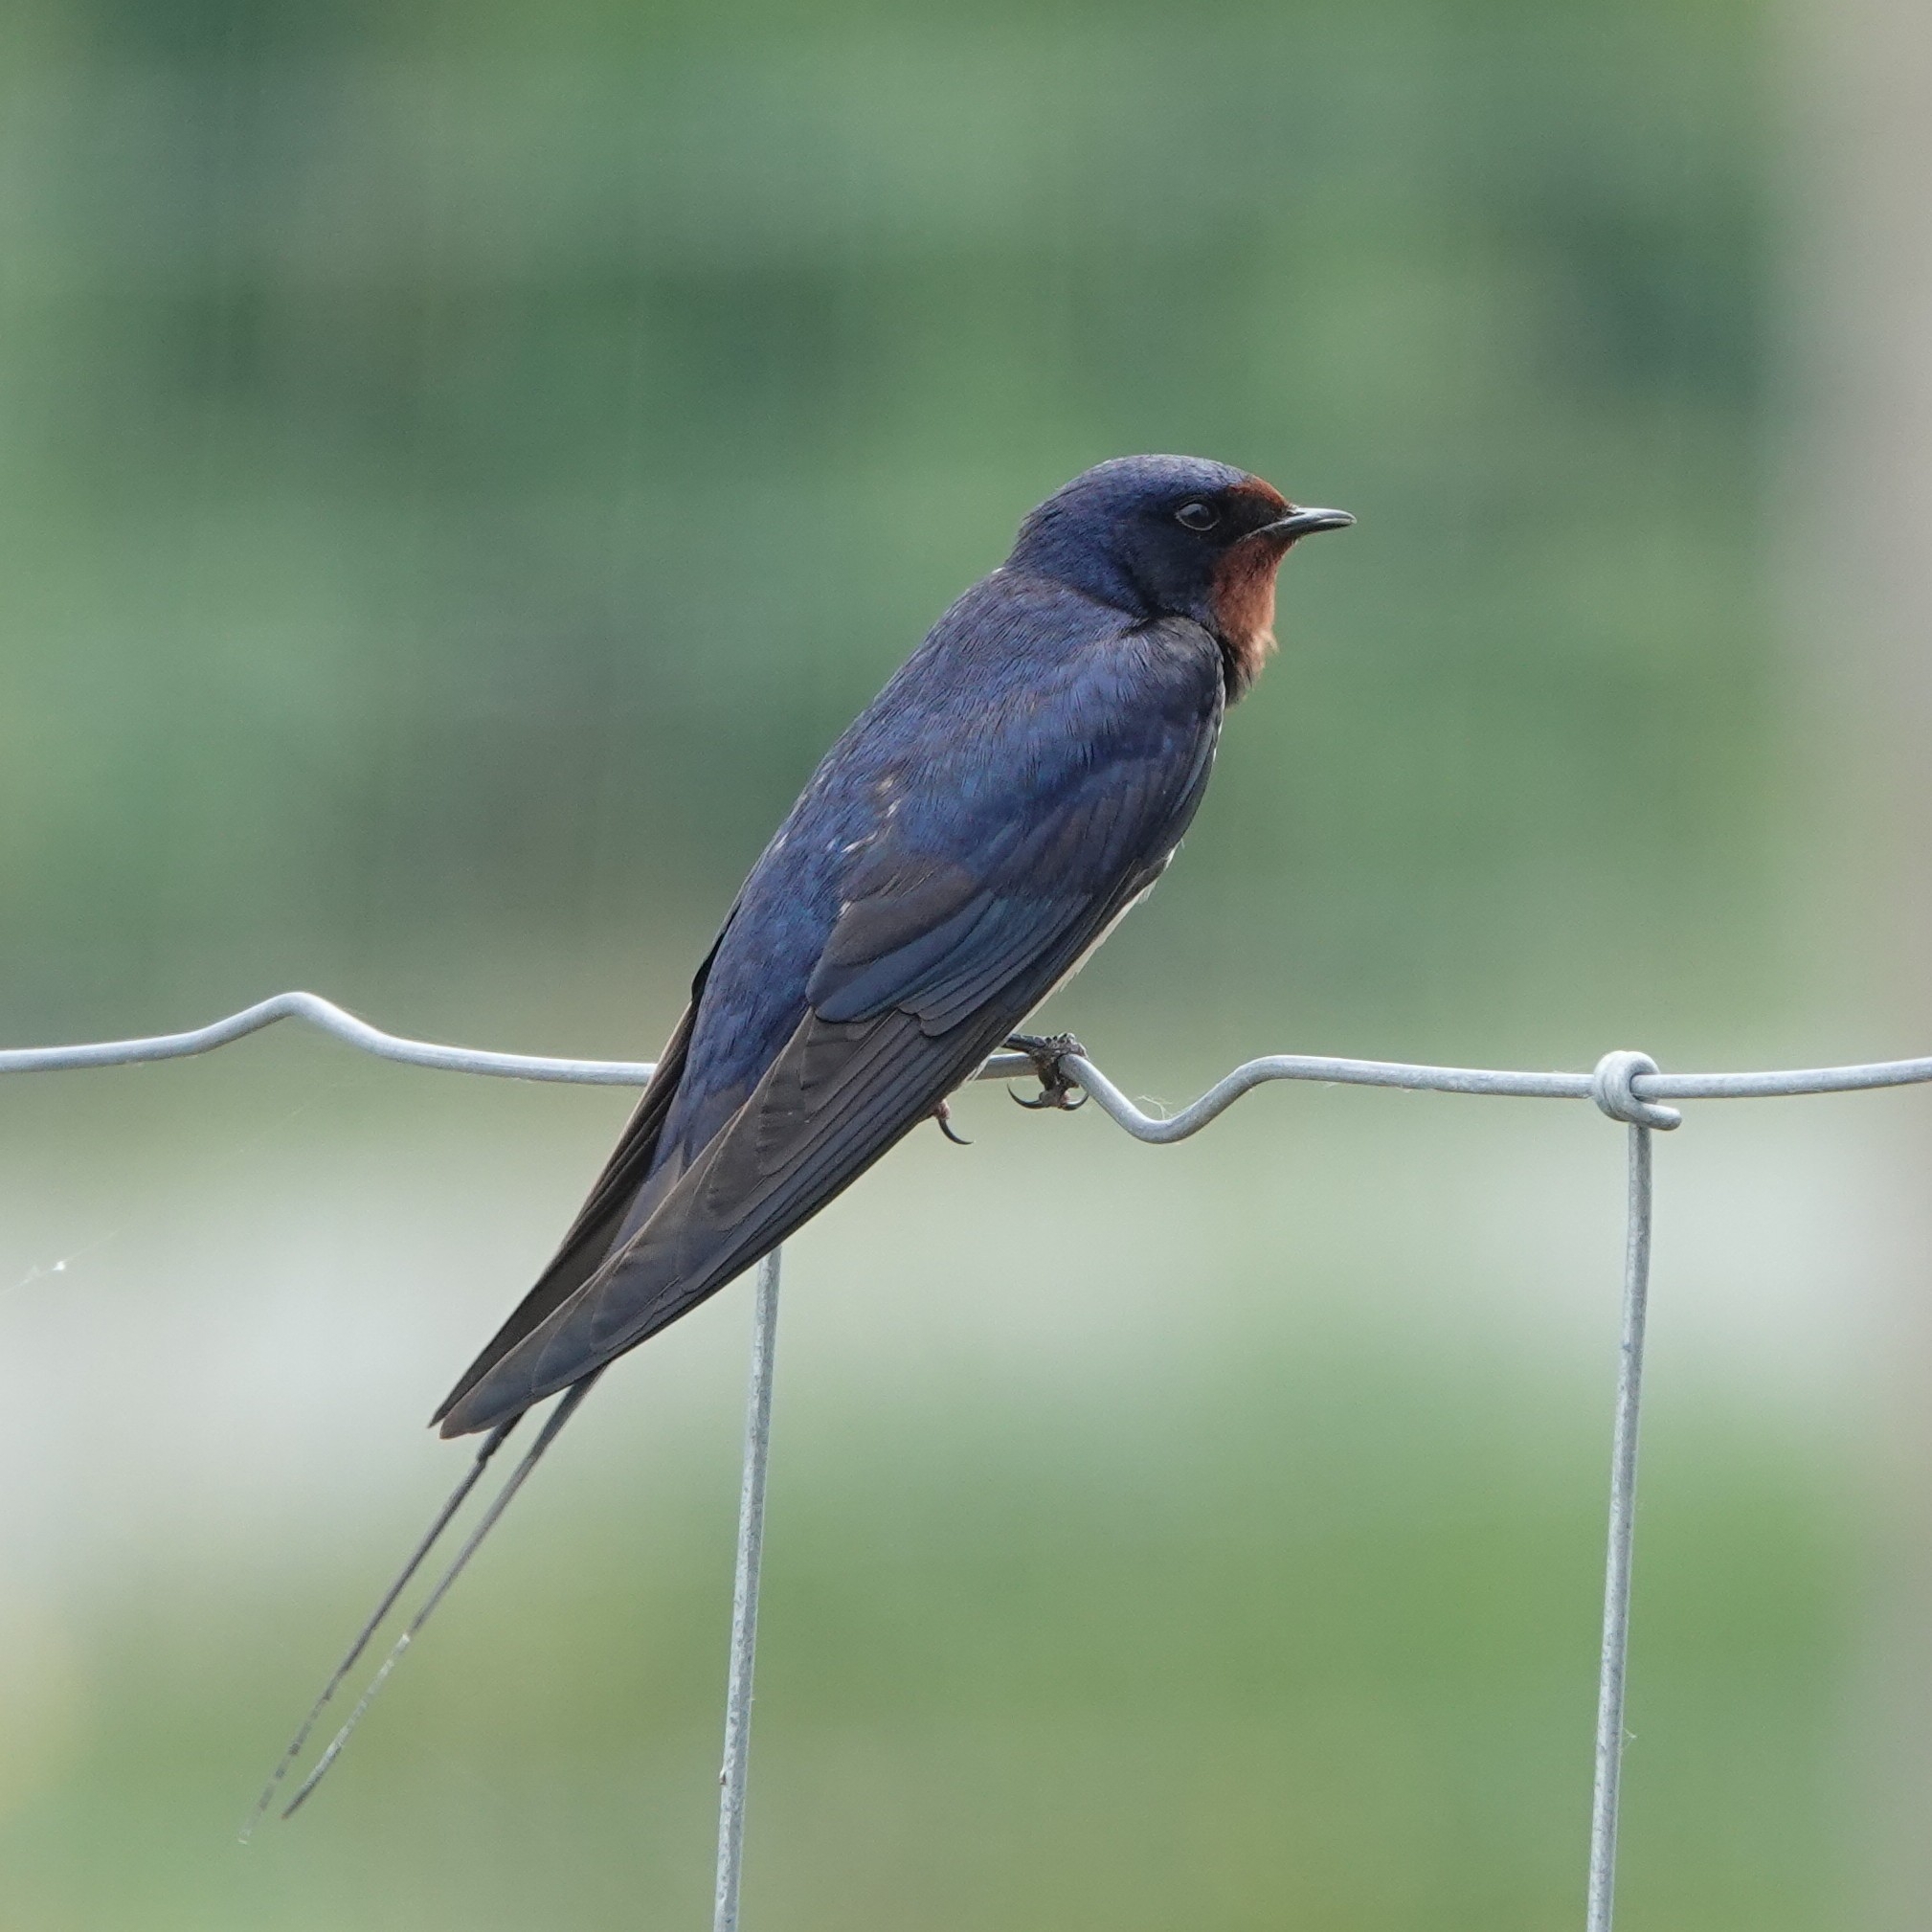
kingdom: Animalia
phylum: Chordata
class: Aves
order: Passeriformes
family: Hirundinidae
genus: Hirundo
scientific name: Hirundo rustica
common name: Barn swallow
